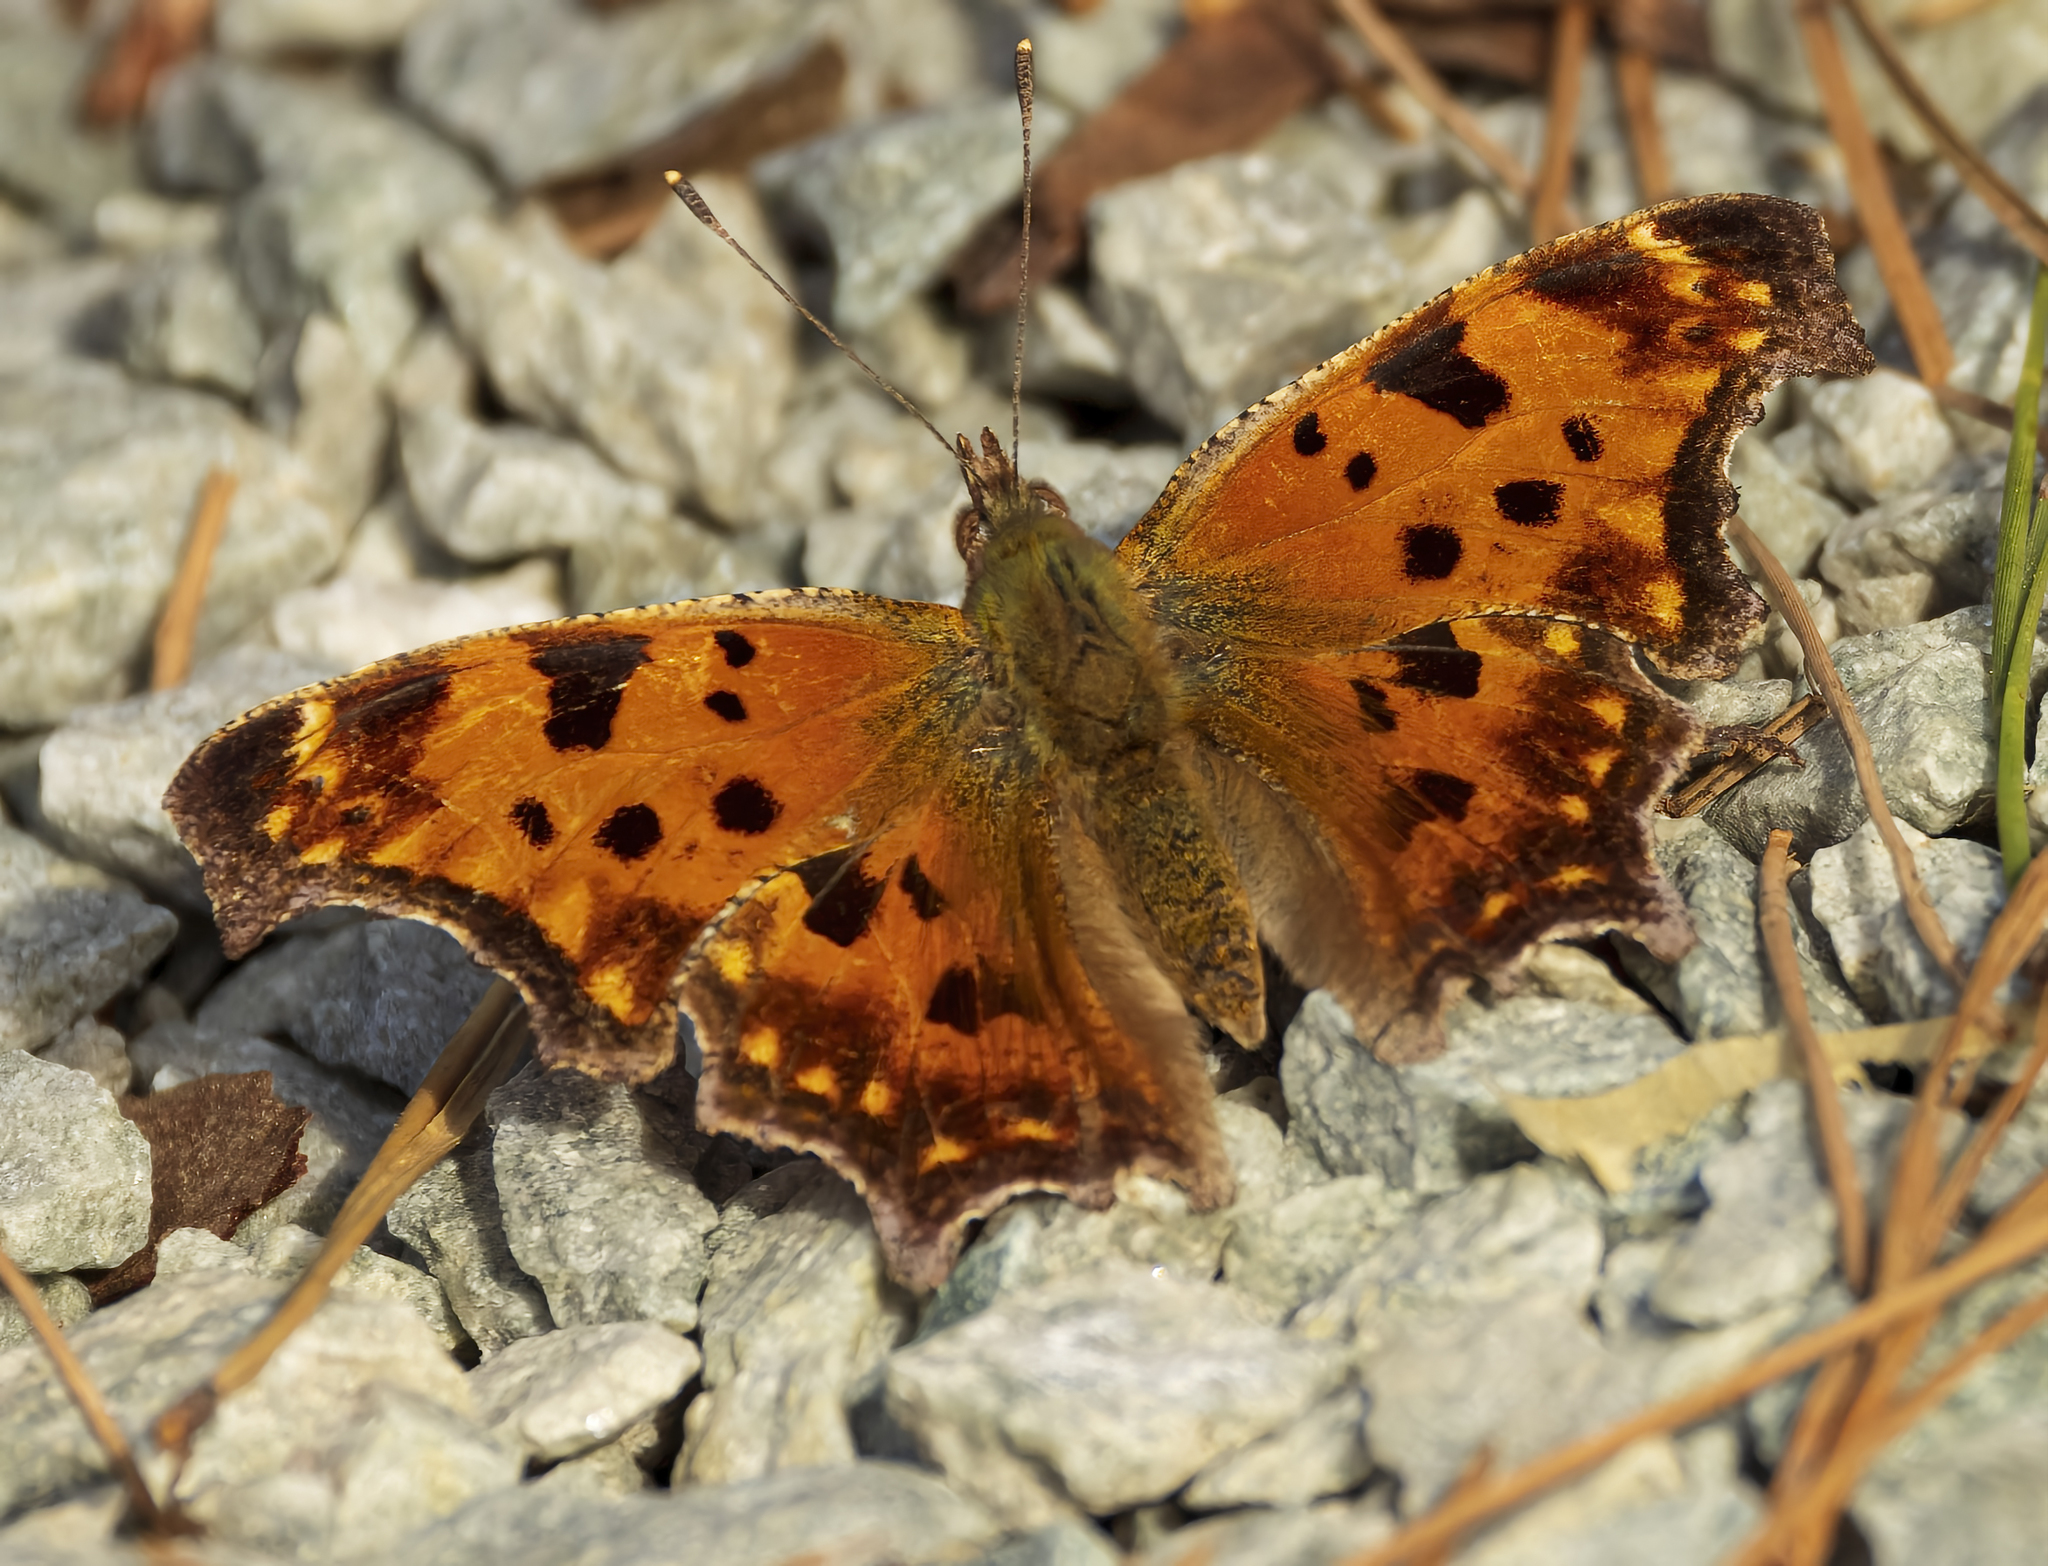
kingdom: Animalia
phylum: Arthropoda
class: Insecta
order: Lepidoptera
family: Nymphalidae
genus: Polygonia
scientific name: Polygonia comma
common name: Eastern comma
